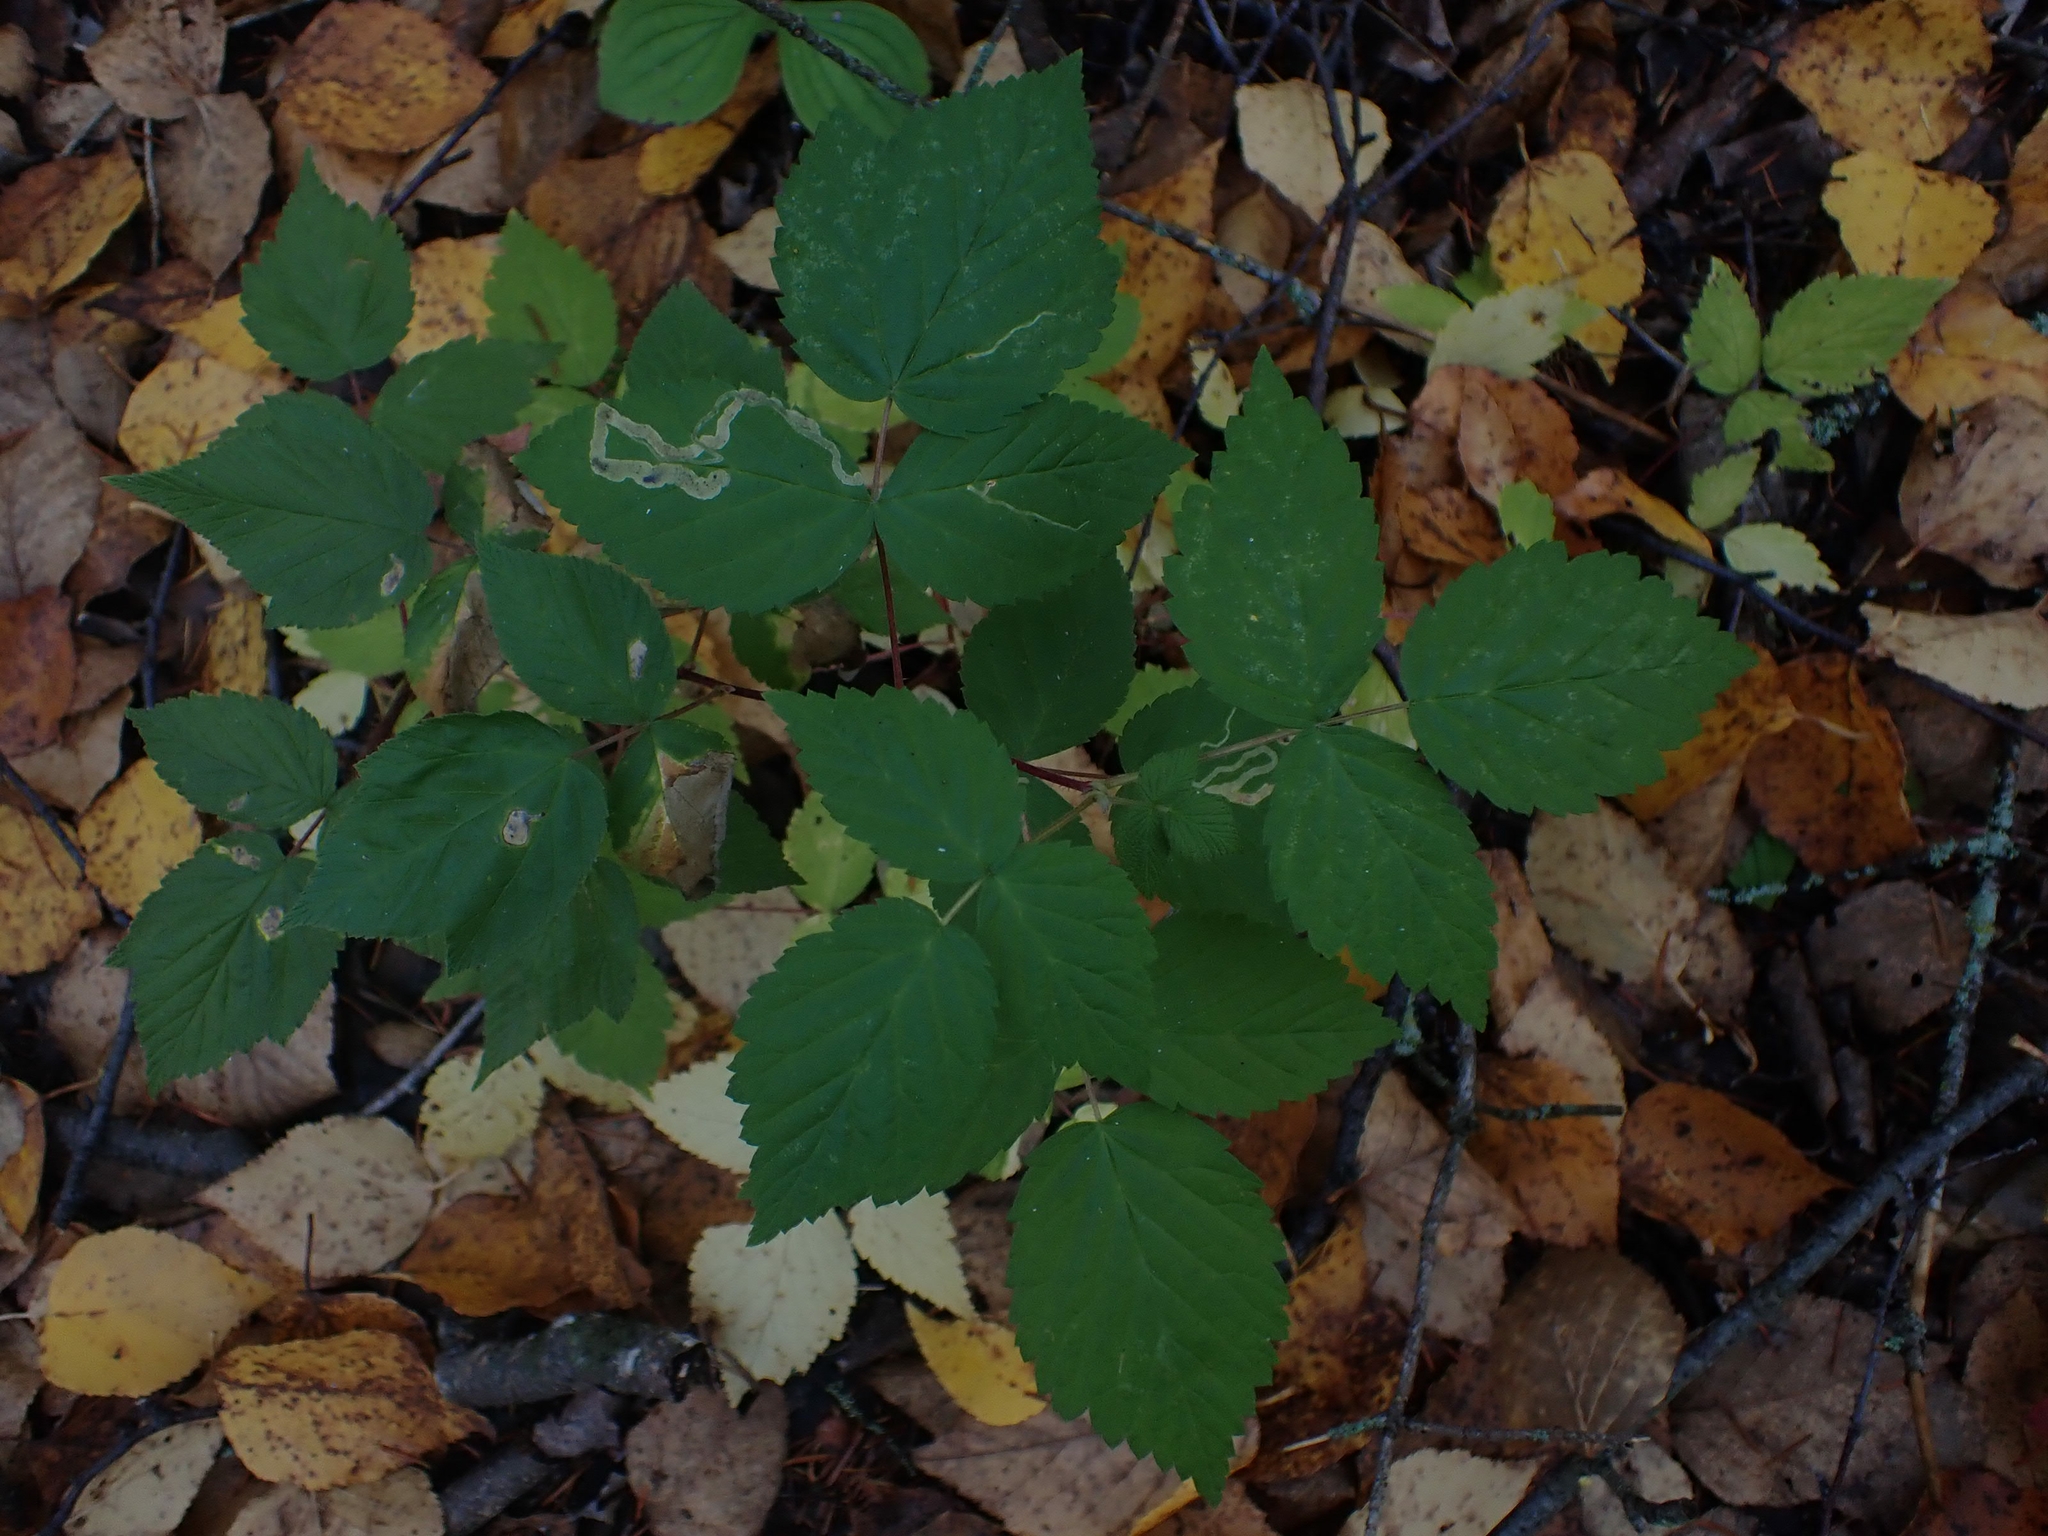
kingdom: Plantae
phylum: Tracheophyta
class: Magnoliopsida
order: Rosales
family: Rosaceae
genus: Rubus
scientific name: Rubus idaeus
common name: Raspberry
